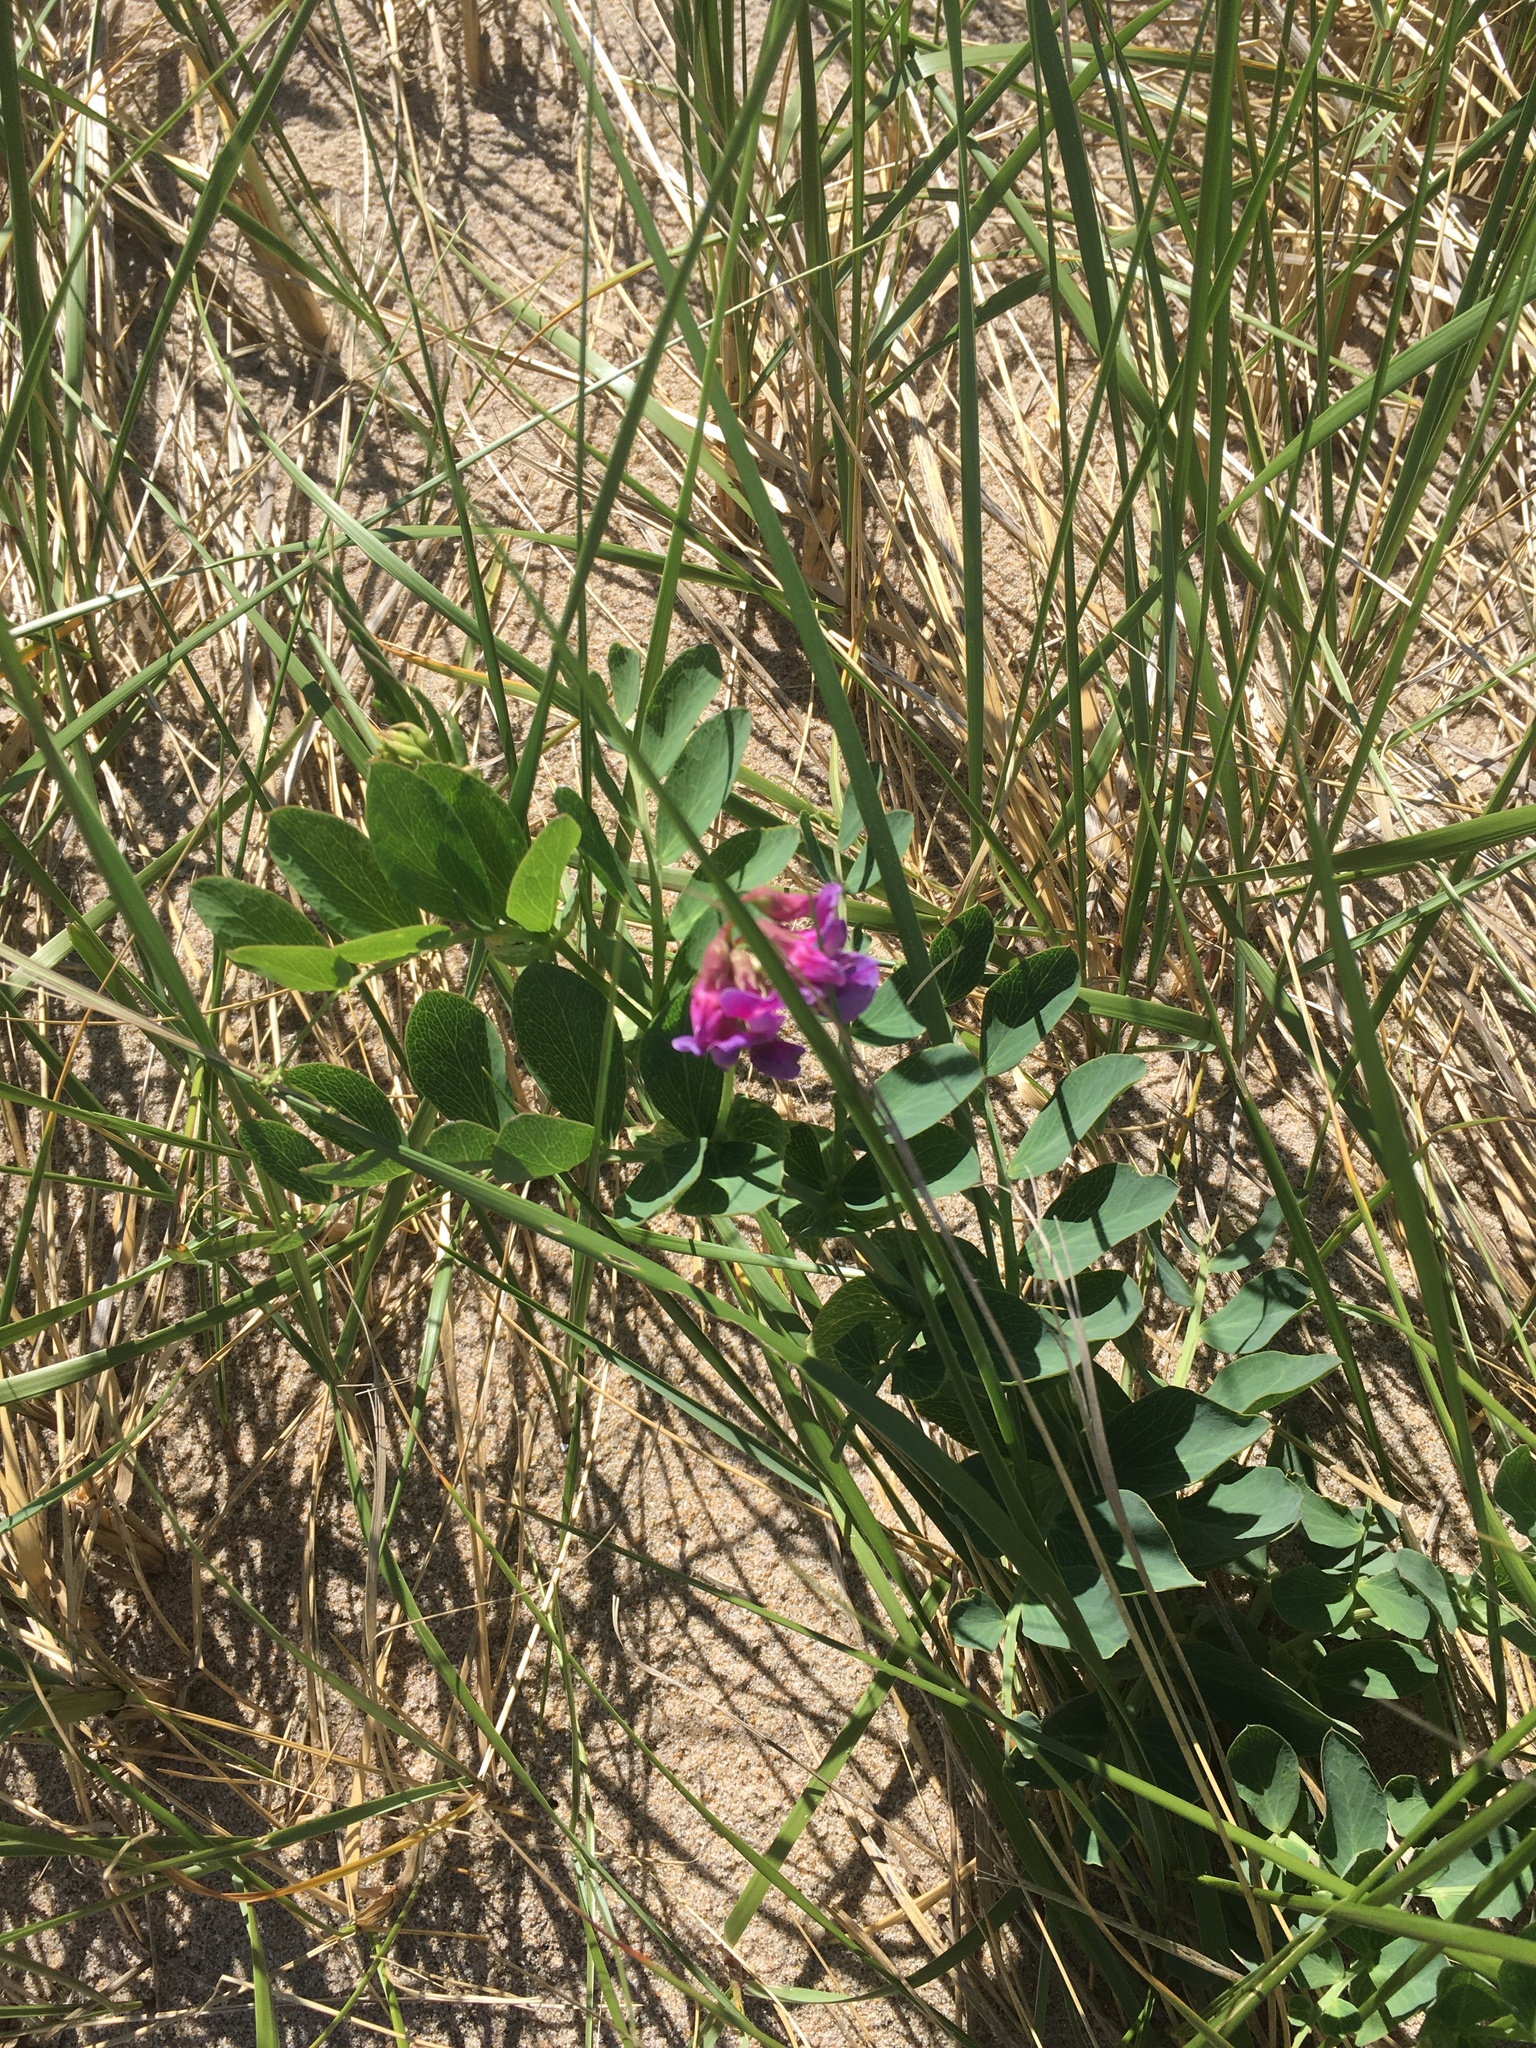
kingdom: Plantae
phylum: Tracheophyta
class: Magnoliopsida
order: Fabales
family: Fabaceae
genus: Lathyrus
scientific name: Lathyrus japonicus
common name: Sea pea
